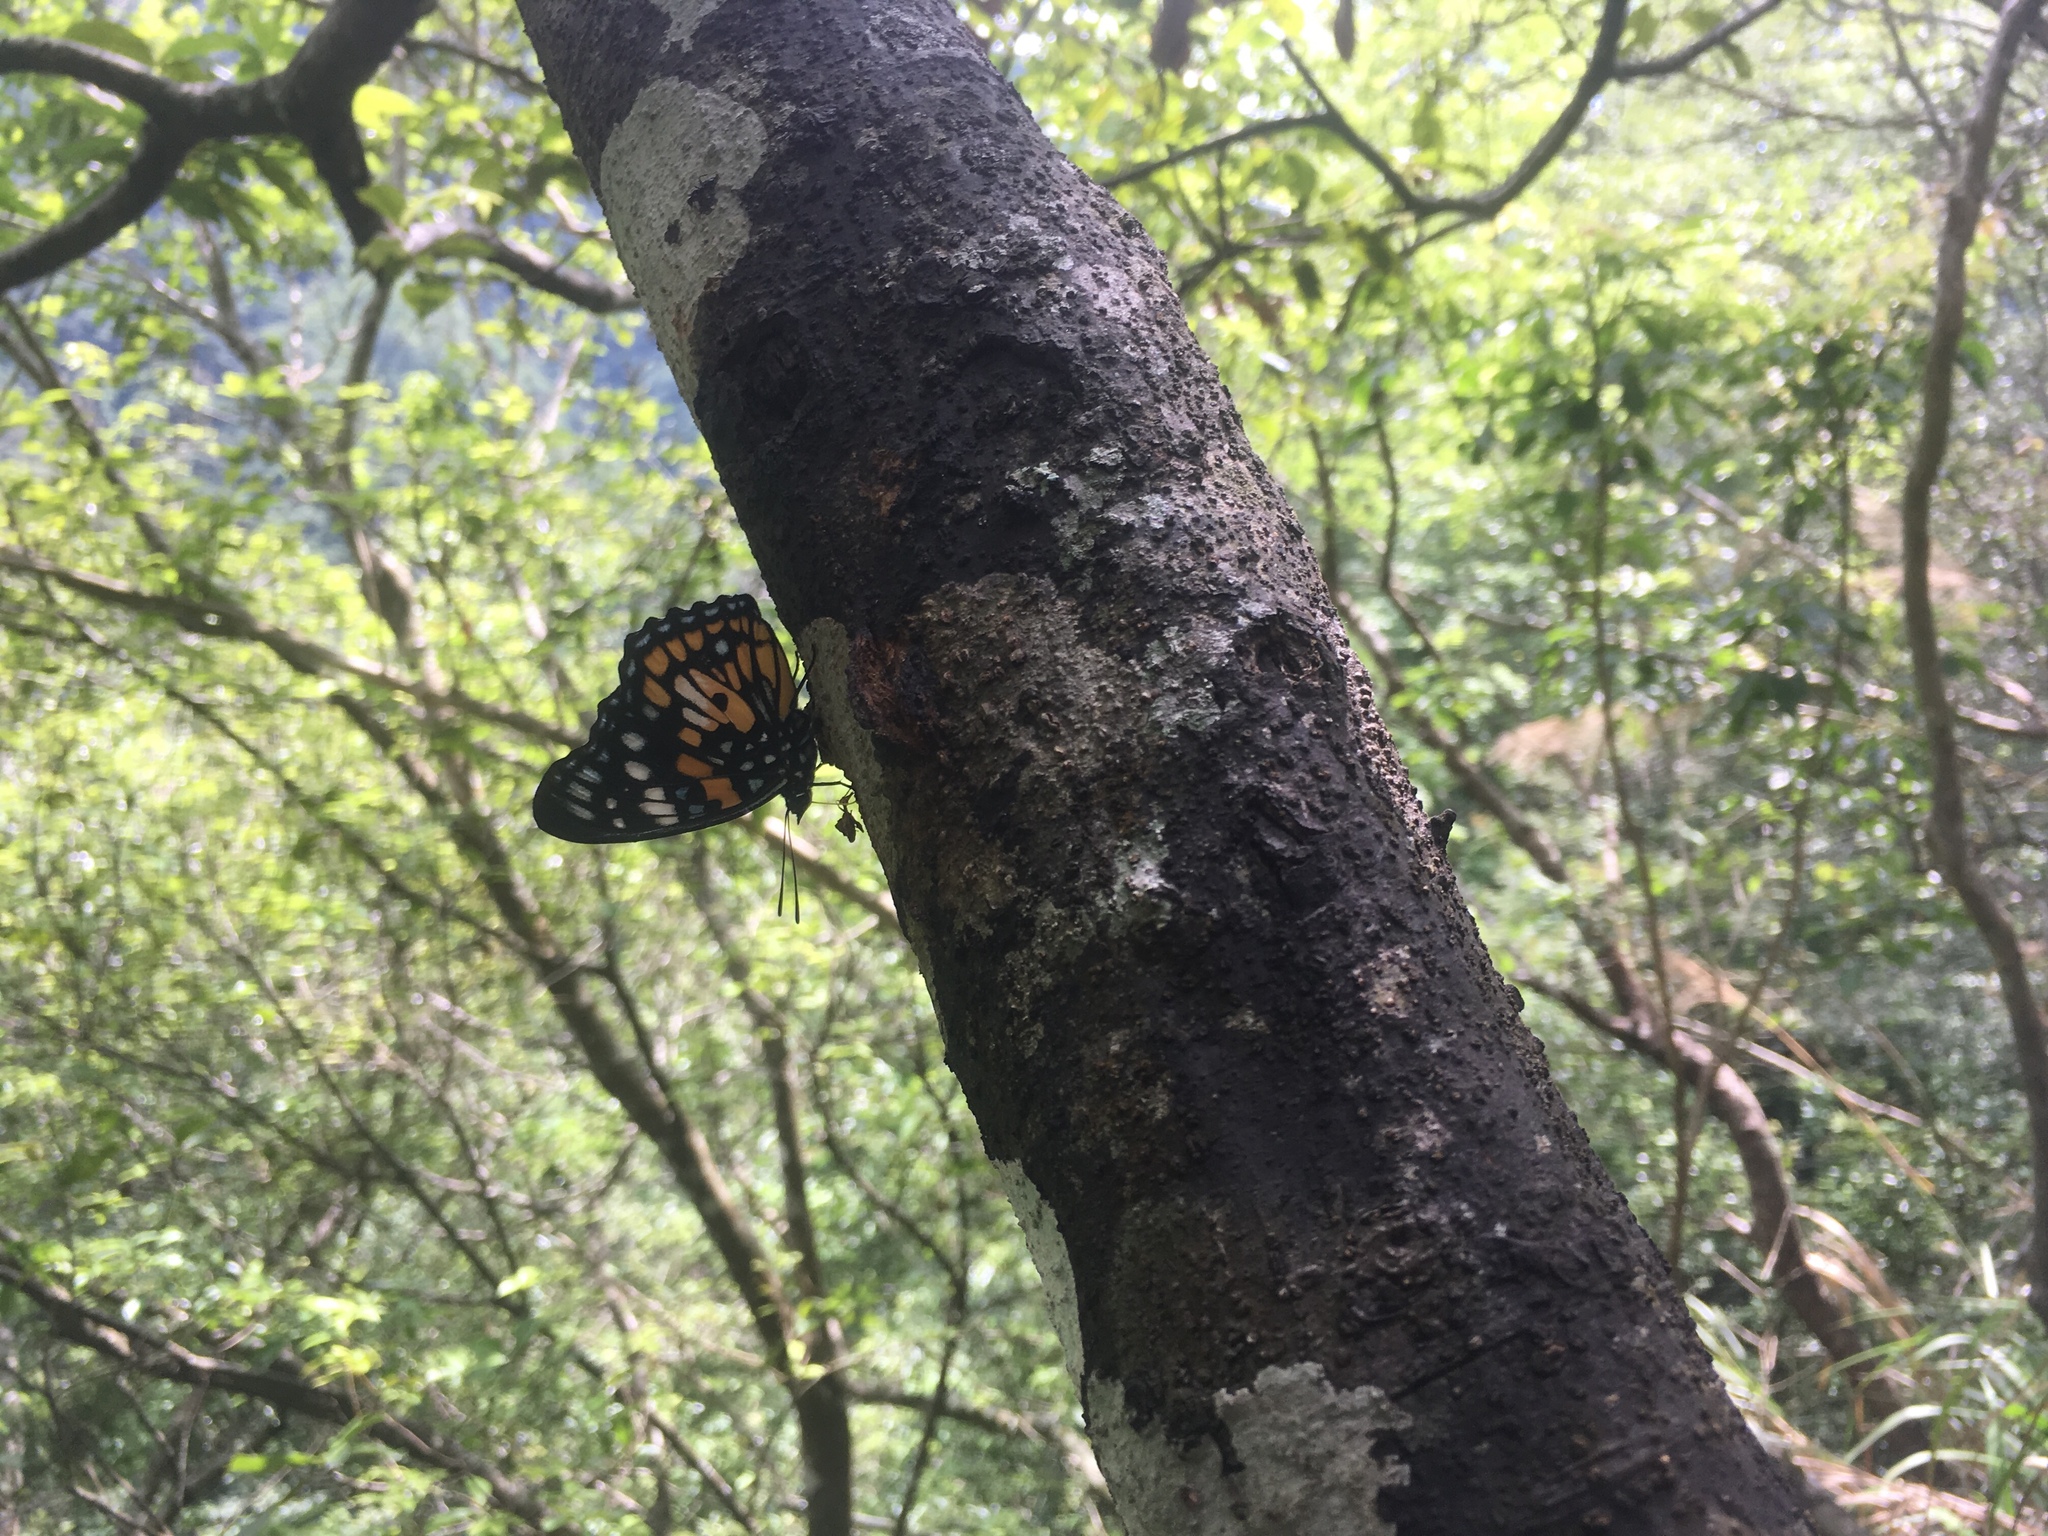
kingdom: Animalia
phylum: Arthropoda
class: Insecta
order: Lepidoptera
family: Nymphalidae
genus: Sephisa
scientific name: Sephisa chandra
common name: Eastern courtier
